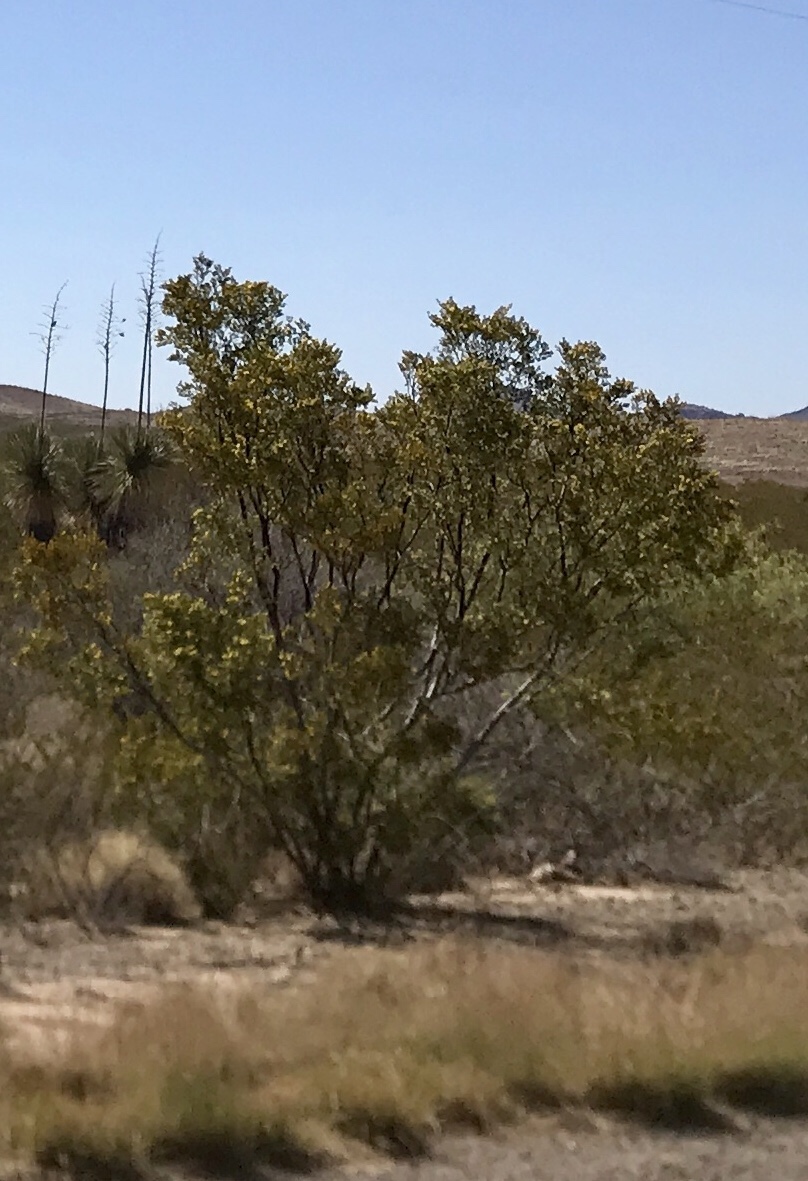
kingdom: Plantae
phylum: Tracheophyta
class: Magnoliopsida
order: Zygophyllales
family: Zygophyllaceae
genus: Larrea
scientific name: Larrea tridentata
